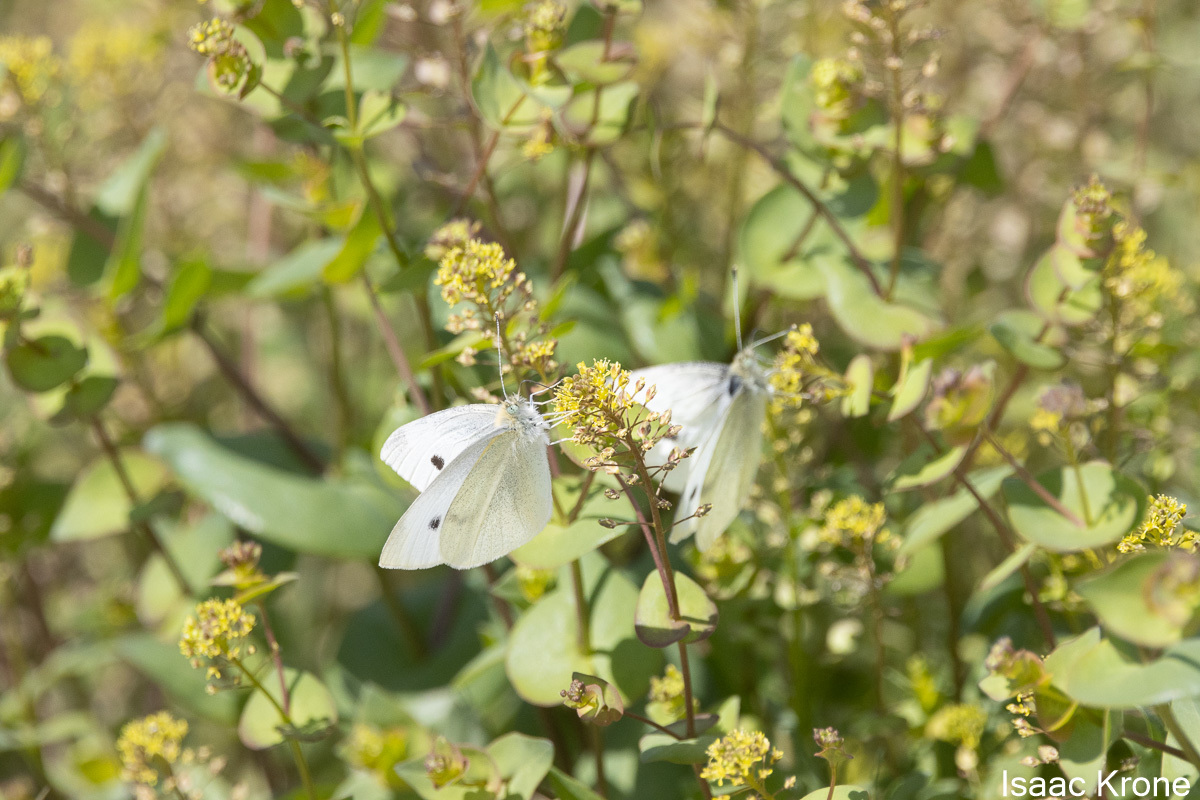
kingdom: Animalia
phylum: Arthropoda
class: Insecta
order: Lepidoptera
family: Pieridae
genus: Pieris
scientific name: Pieris rapae
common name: Small white
